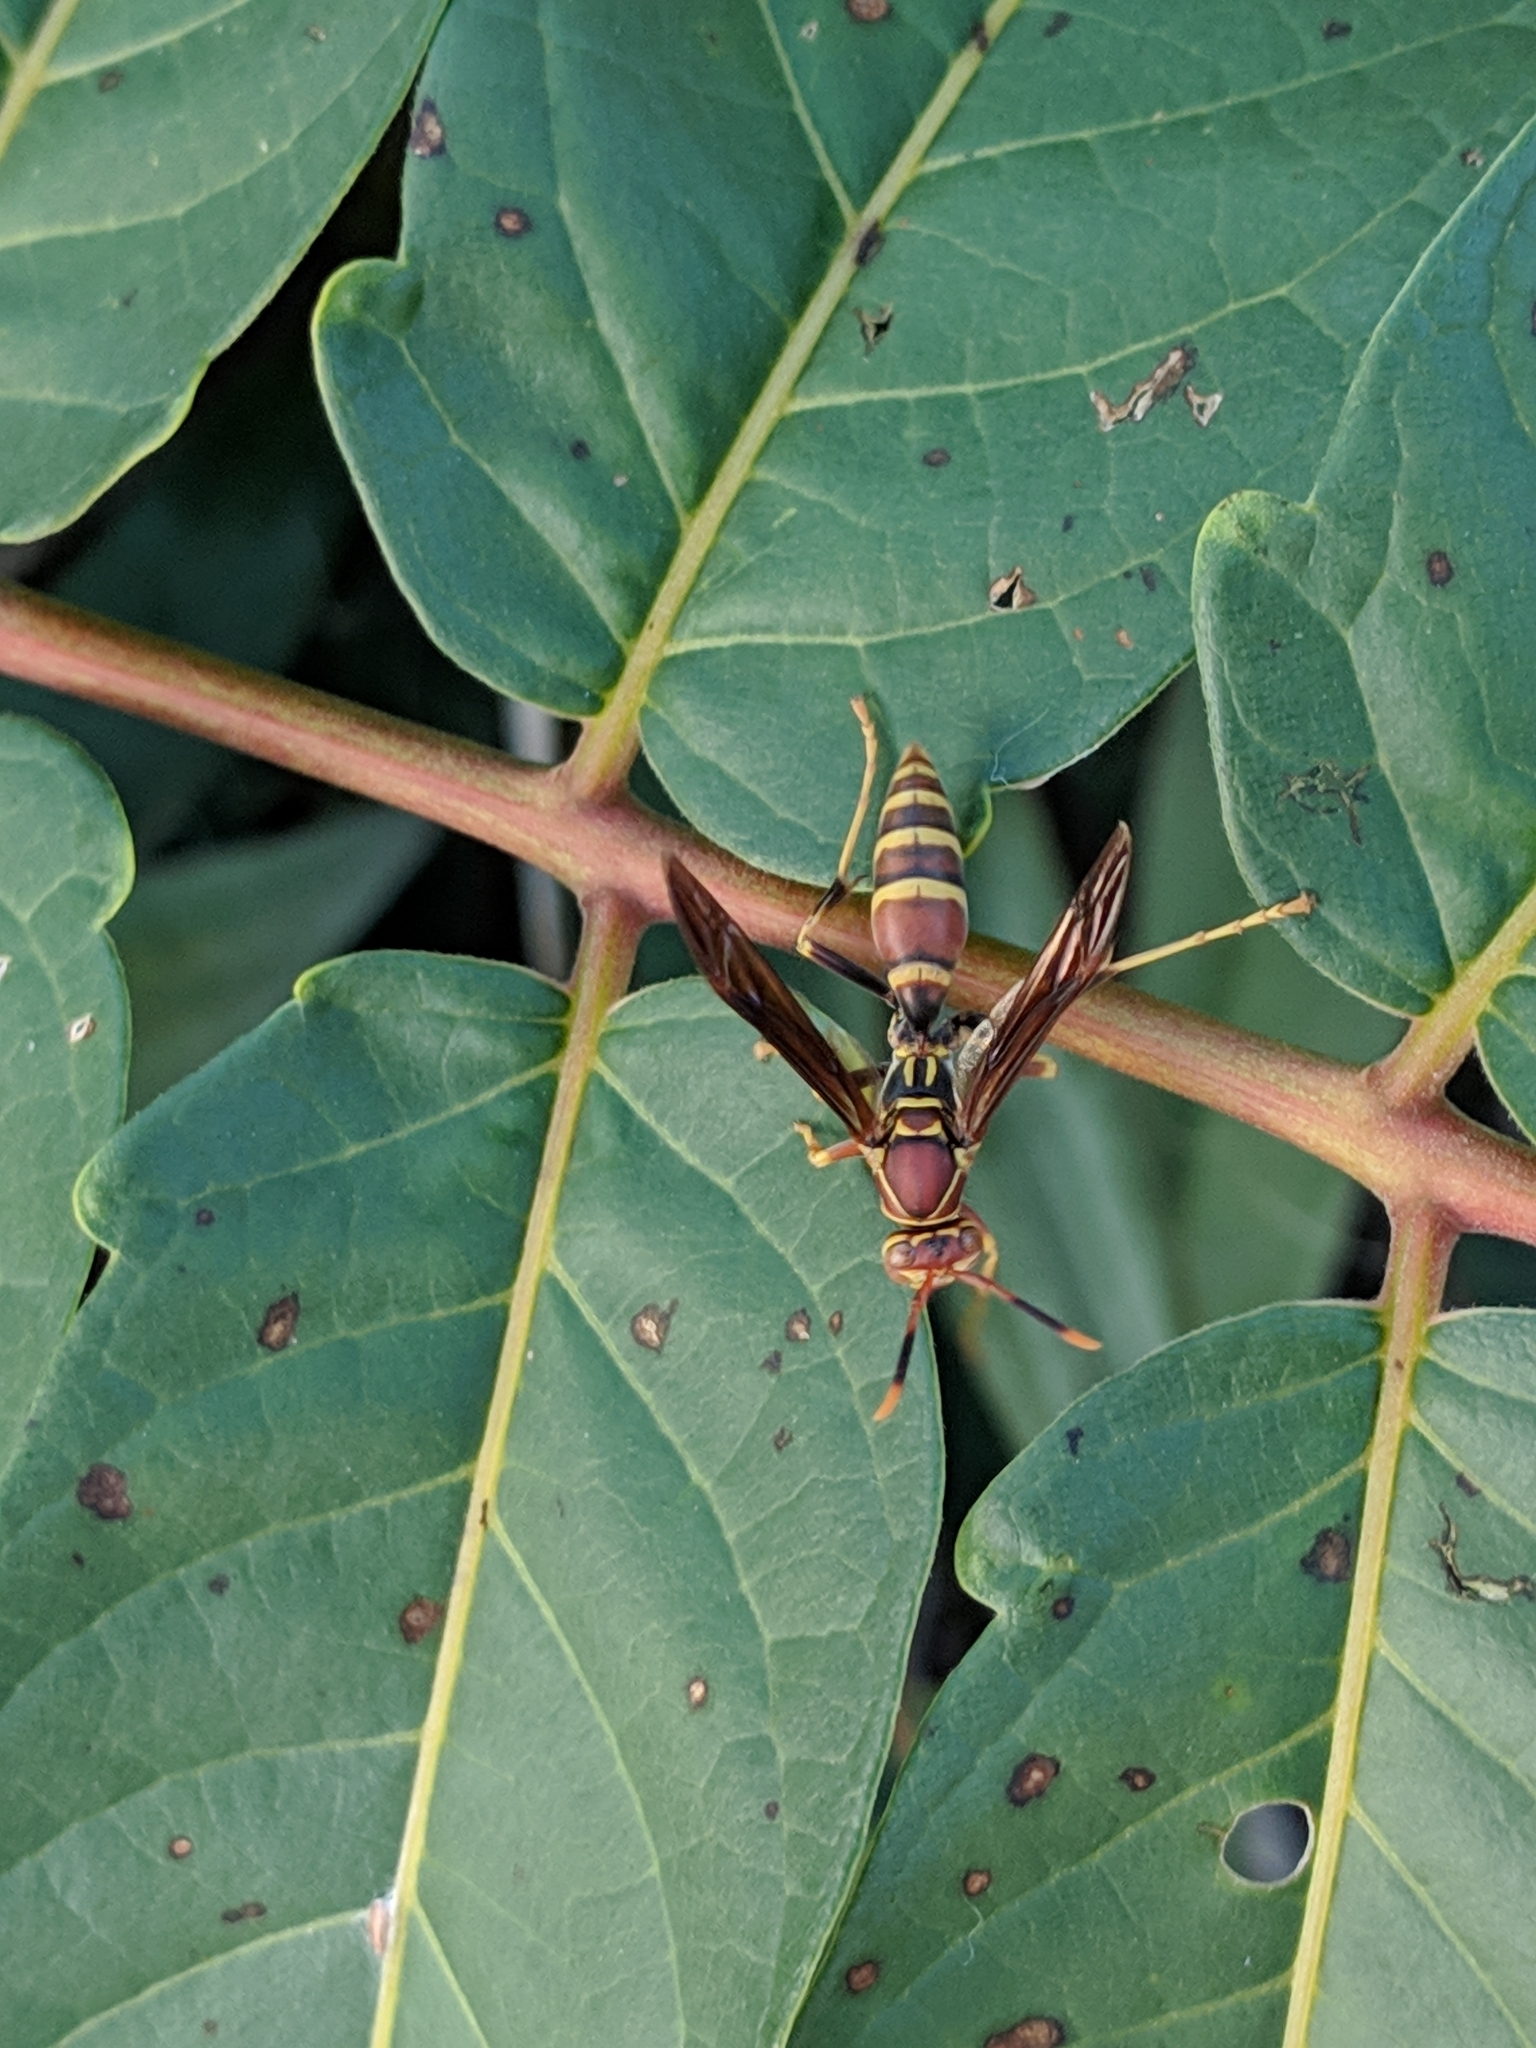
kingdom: Animalia
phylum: Arthropoda
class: Insecta
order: Hymenoptera
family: Eumenidae
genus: Polistes
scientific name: Polistes exclamans
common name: Paper wasp
